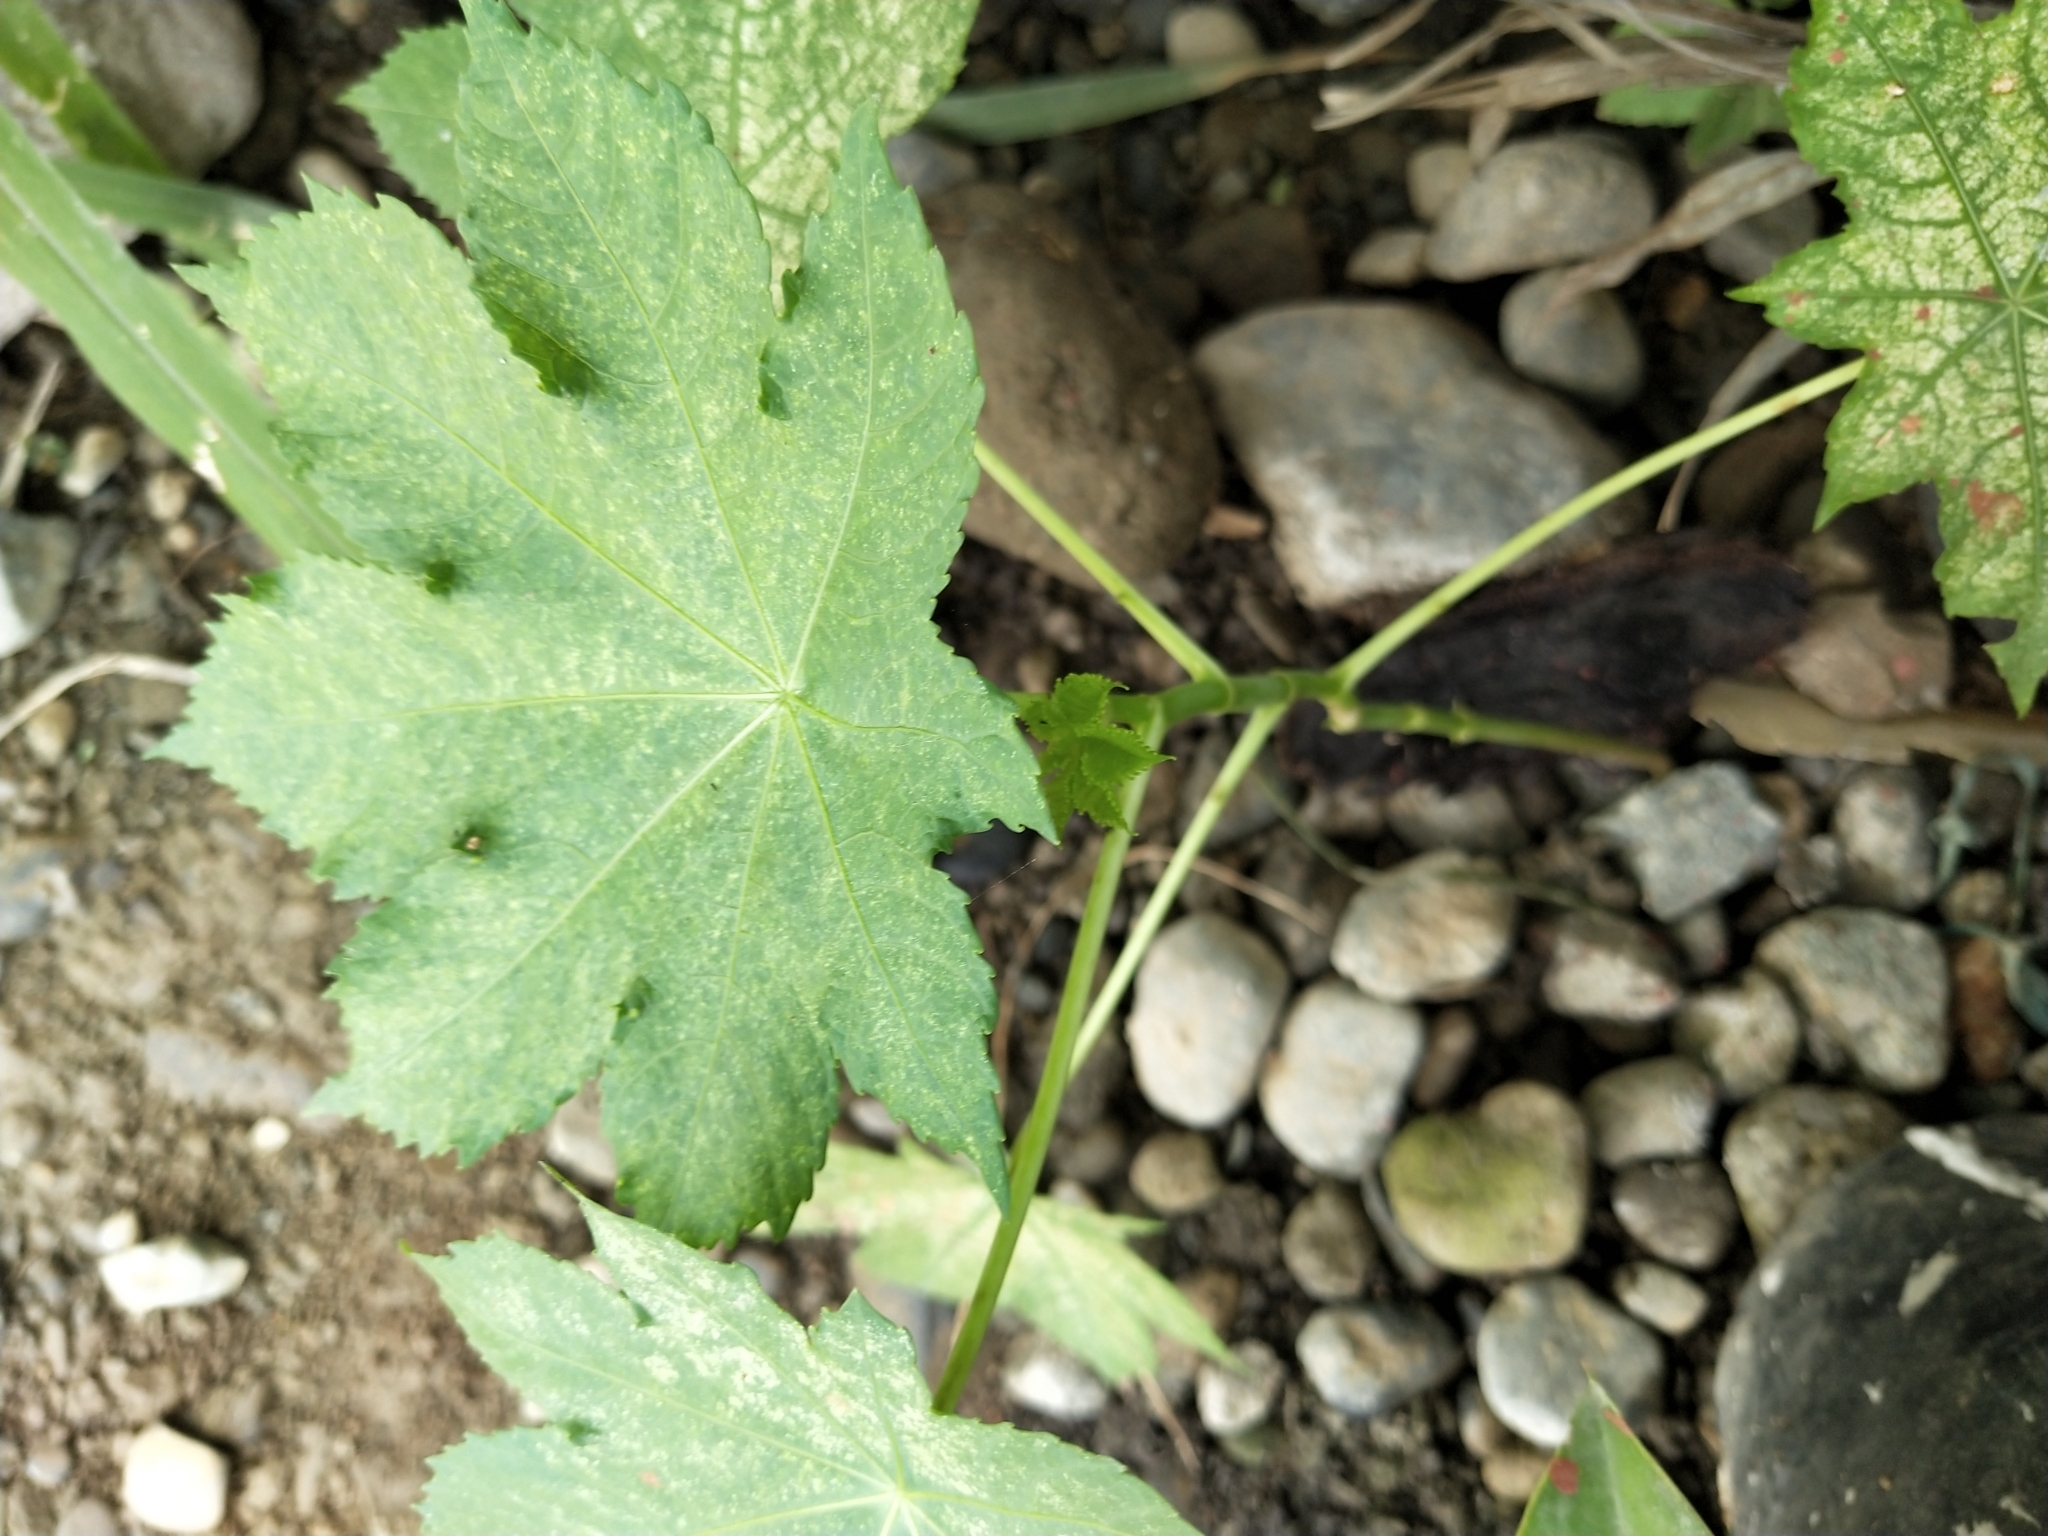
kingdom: Plantae
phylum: Tracheophyta
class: Magnoliopsida
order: Malpighiales
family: Euphorbiaceae
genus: Ricinus
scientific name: Ricinus communis
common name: Castor-oil-plant
